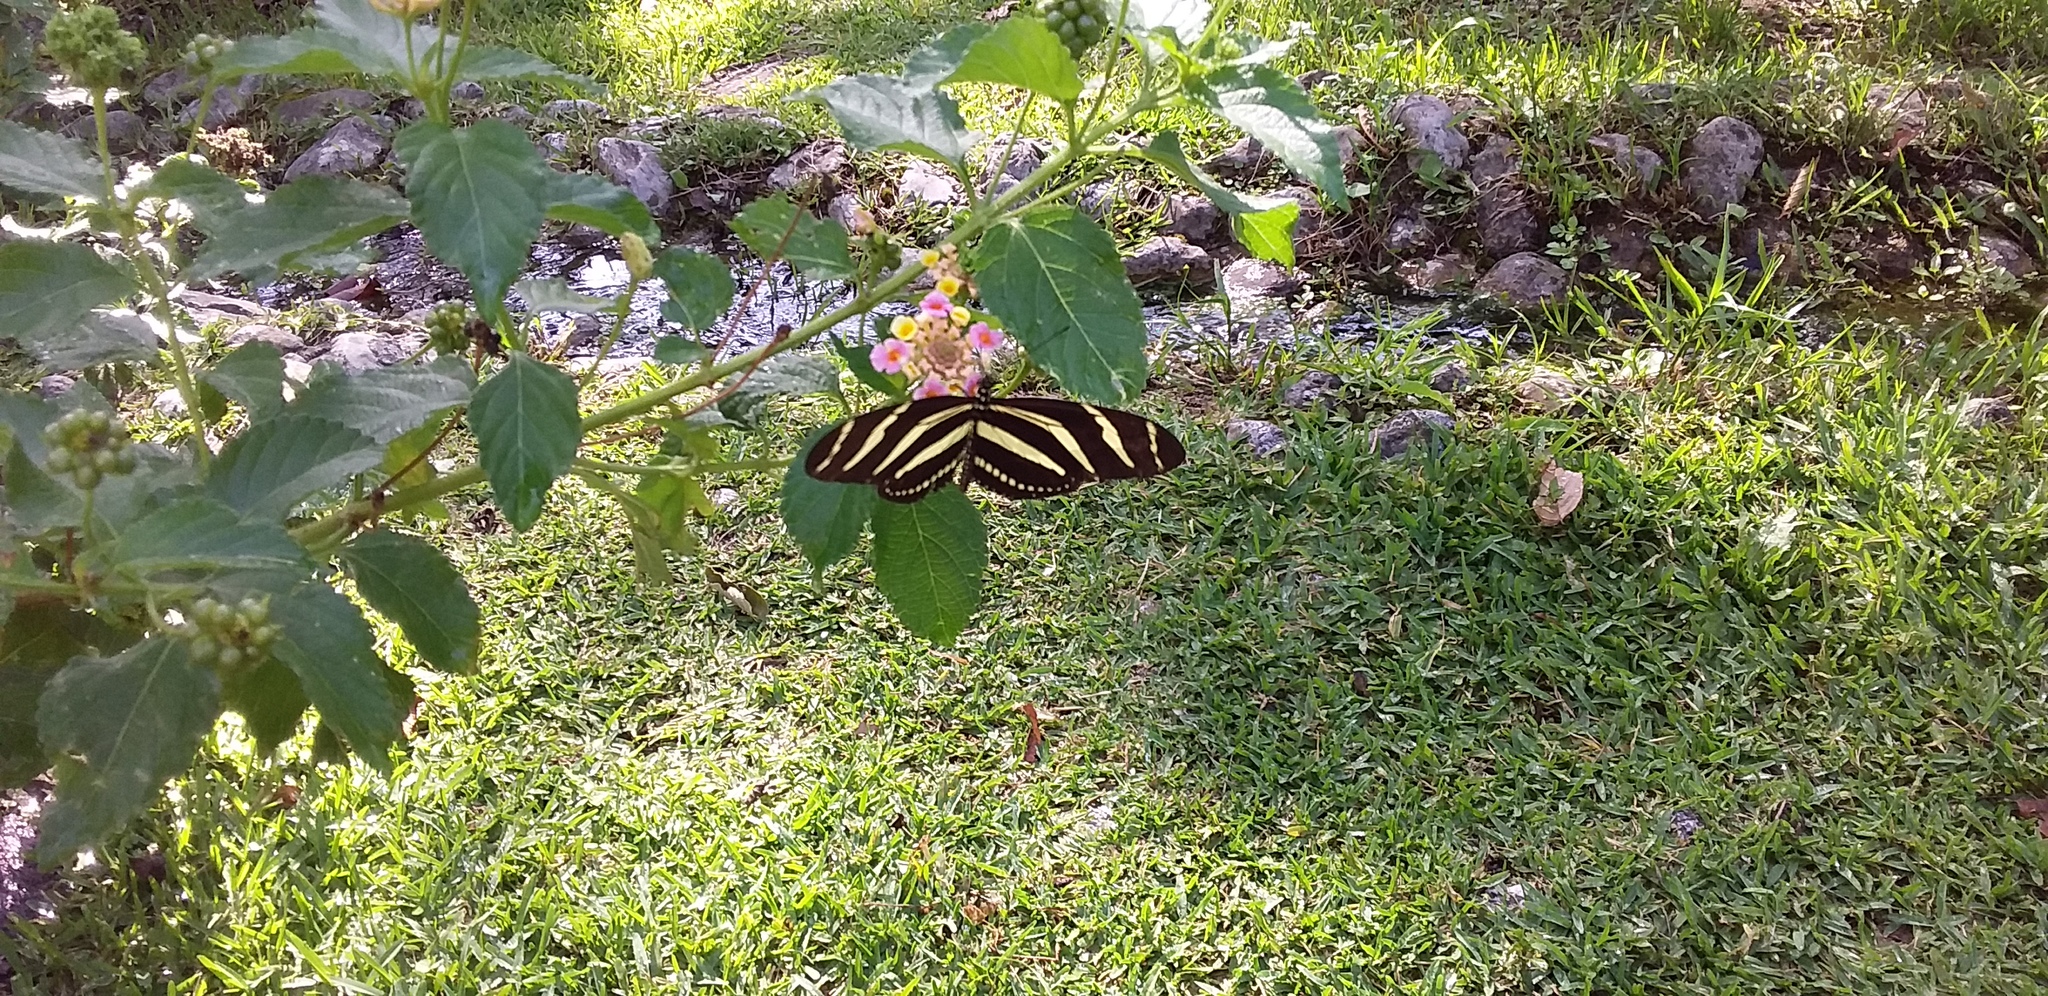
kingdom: Animalia
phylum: Arthropoda
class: Insecta
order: Lepidoptera
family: Nymphalidae
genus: Heliconius
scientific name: Heliconius charithonia
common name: Zebra long wing
